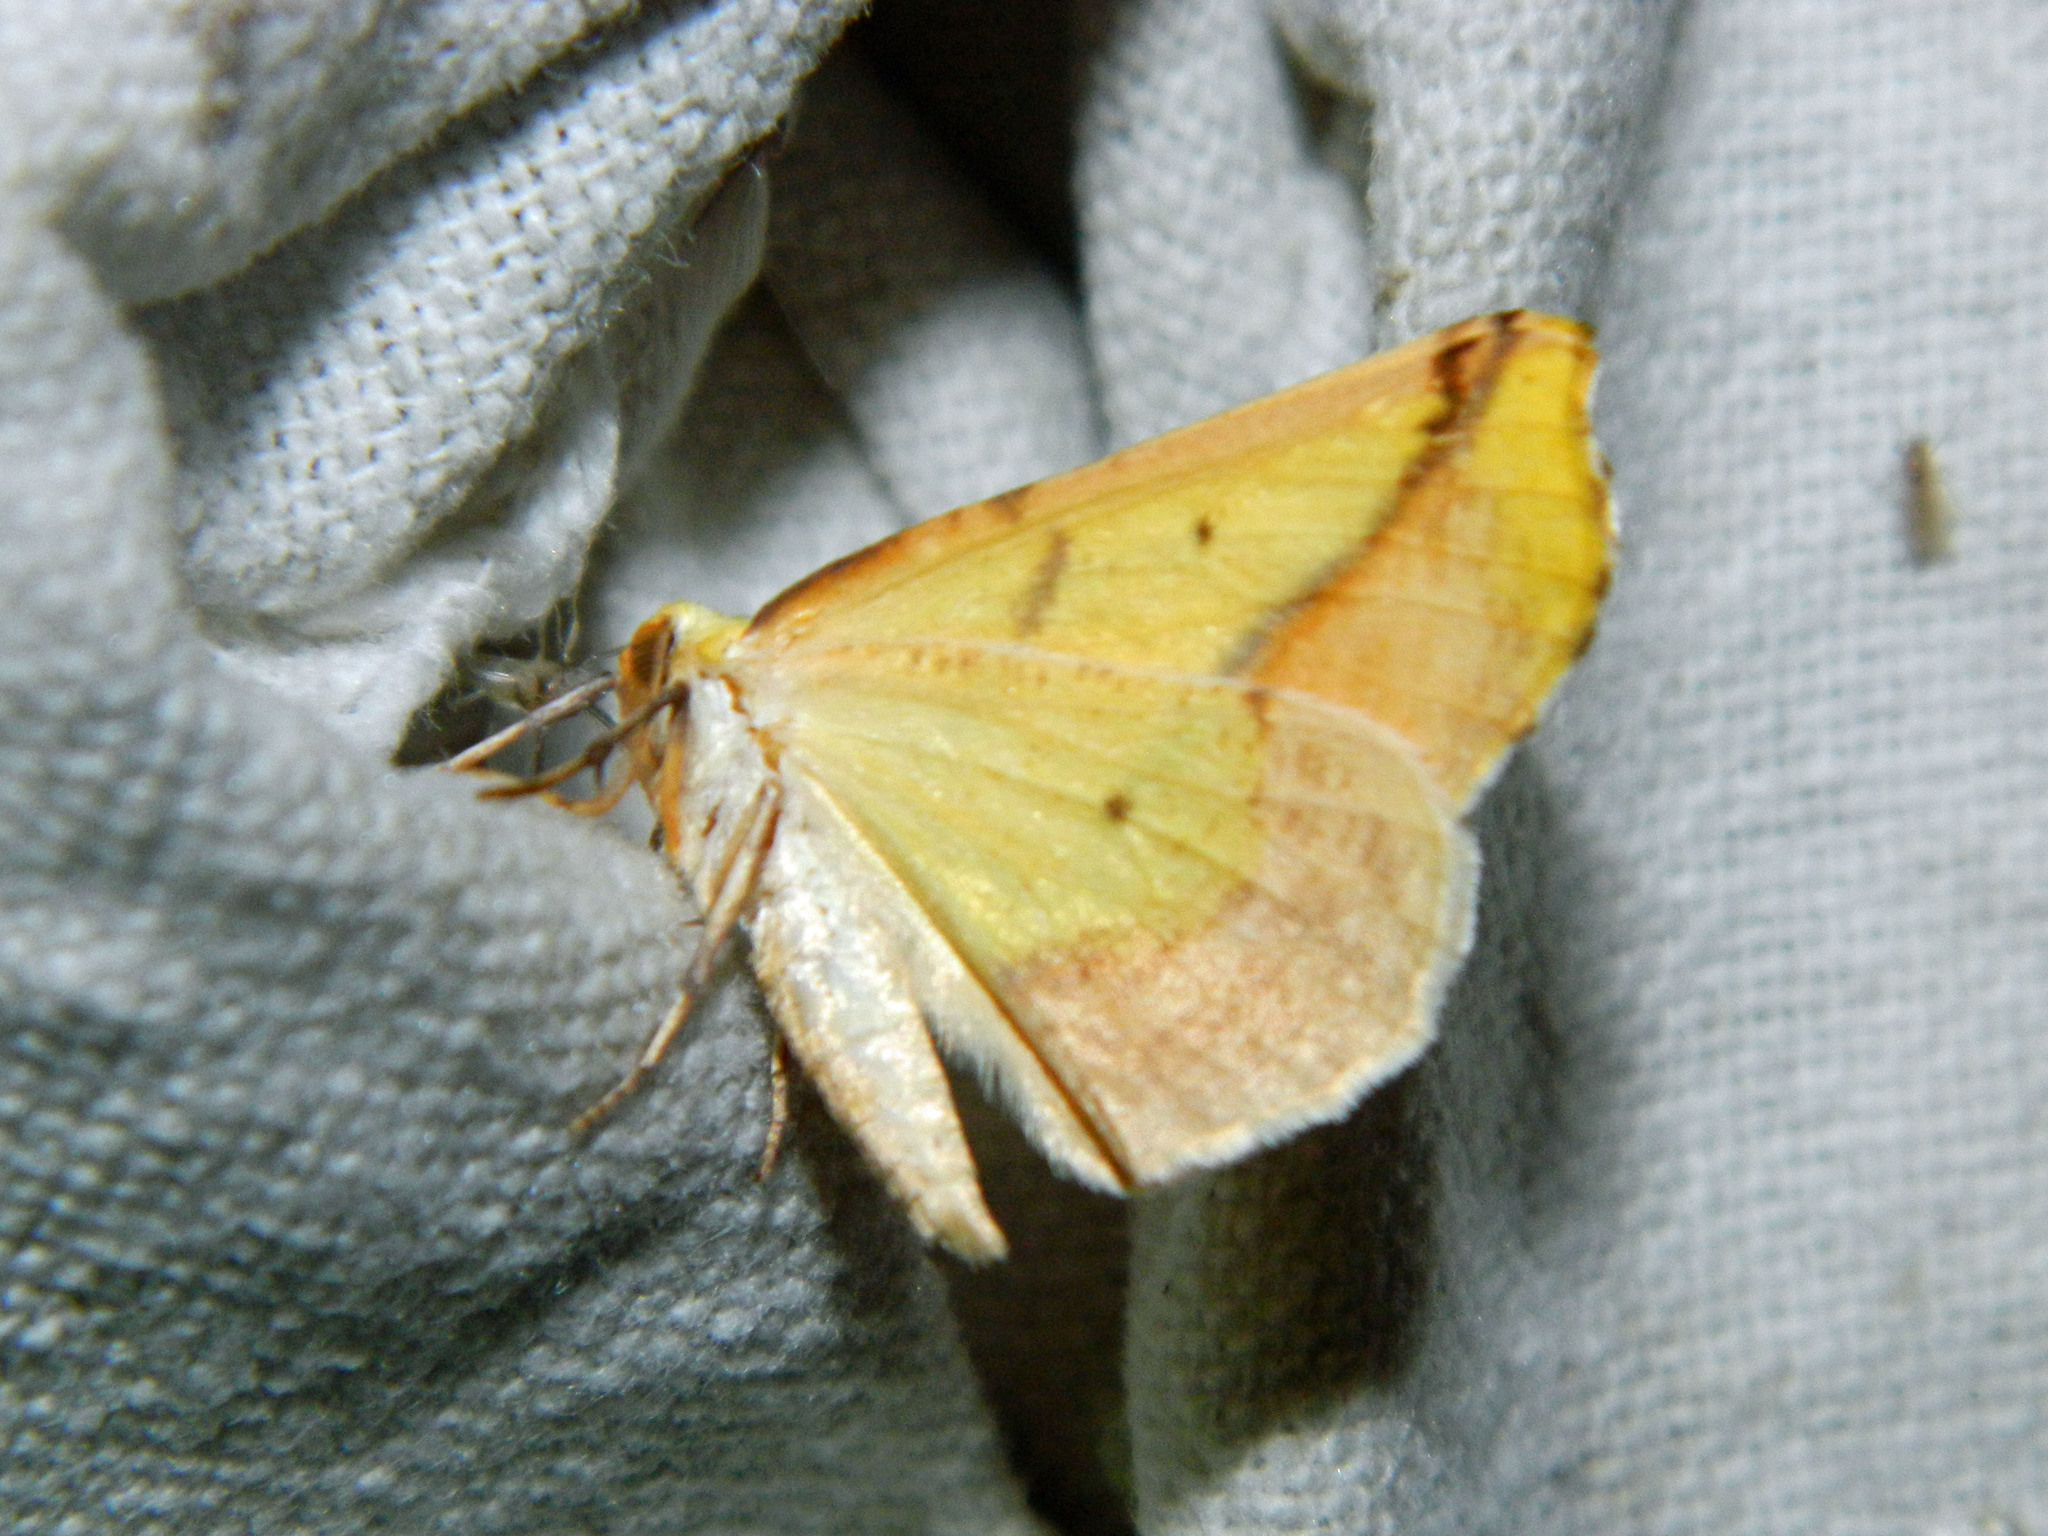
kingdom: Animalia
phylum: Arthropoda
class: Insecta
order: Lepidoptera
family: Geometridae
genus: Sicya
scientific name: Sicya macularia
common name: Sharp-lined yellow
